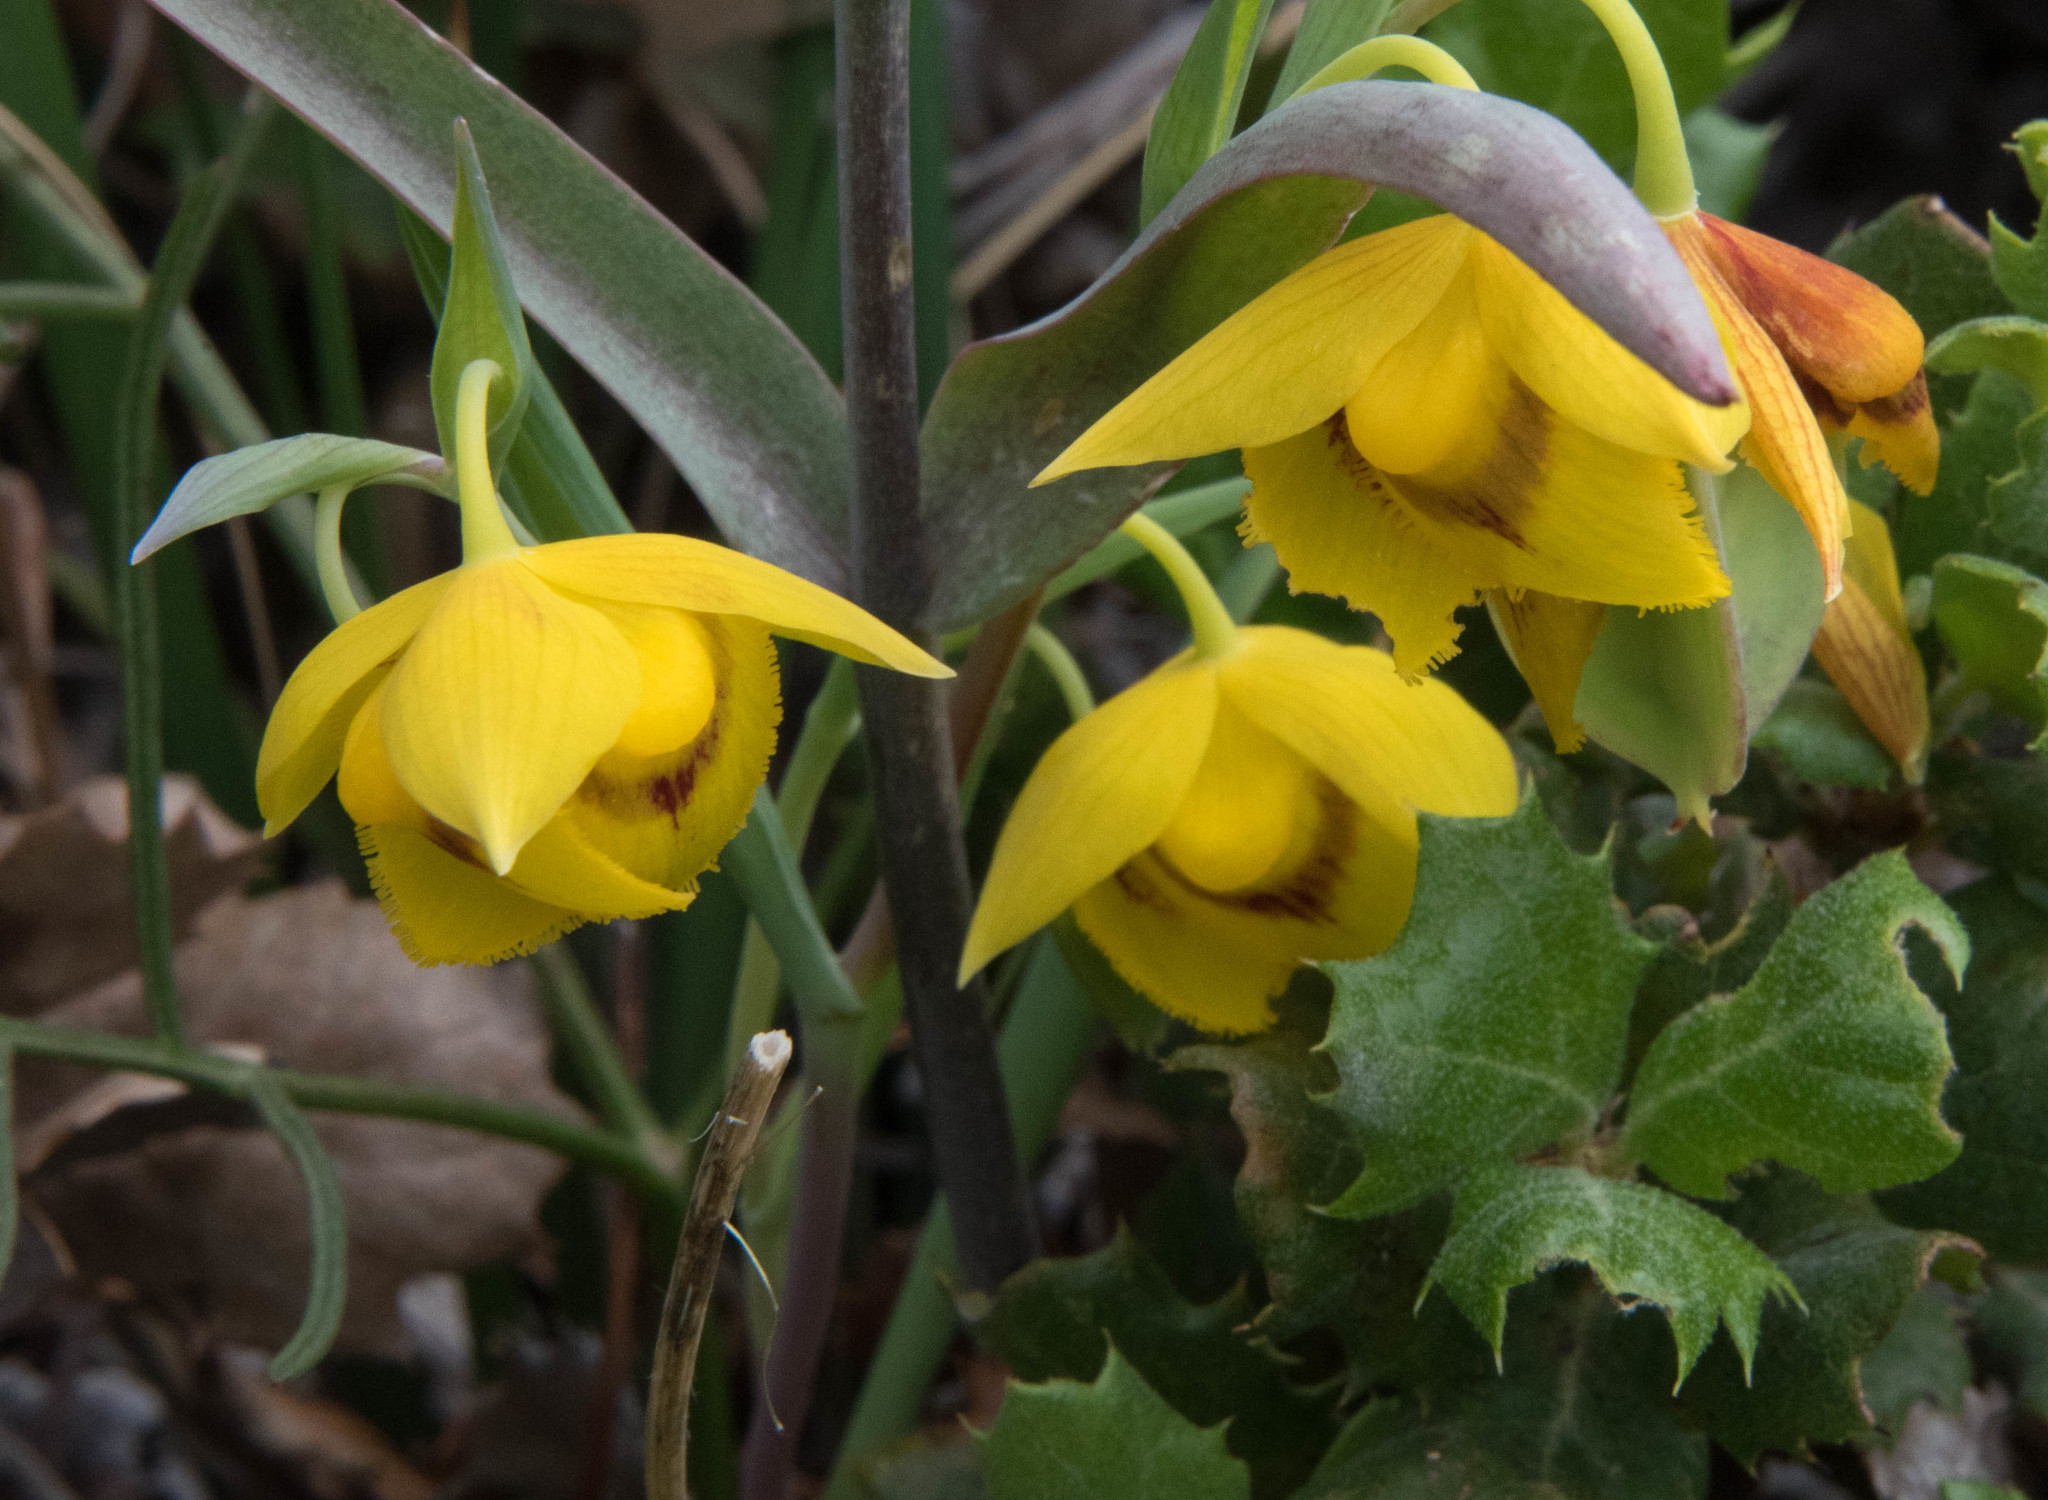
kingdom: Plantae
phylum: Tracheophyta
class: Liliopsida
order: Liliales
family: Liliaceae
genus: Calochortus
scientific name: Calochortus amabilis
